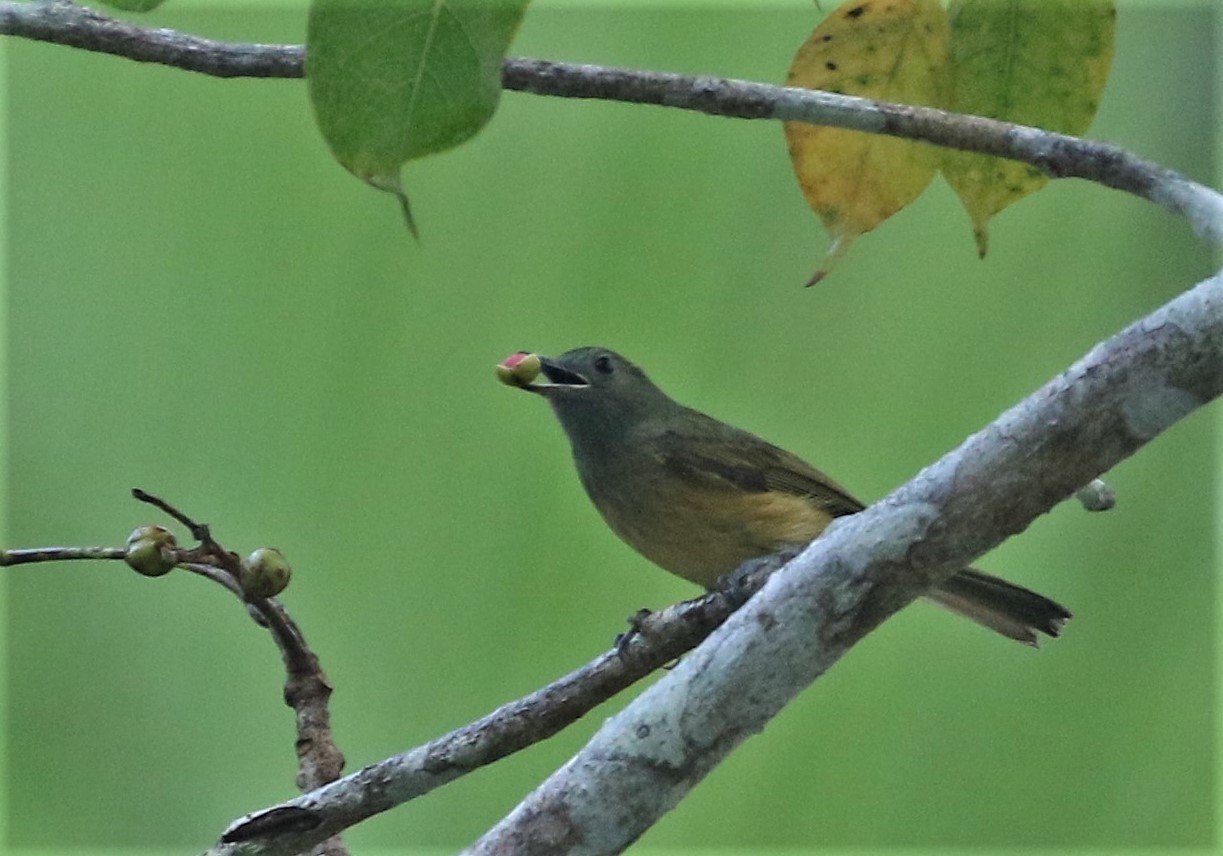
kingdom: Animalia
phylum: Chordata
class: Aves
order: Passeriformes
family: Tyrannidae
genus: Mionectes
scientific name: Mionectes oleagineus
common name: Ochre-bellied flycatcher
